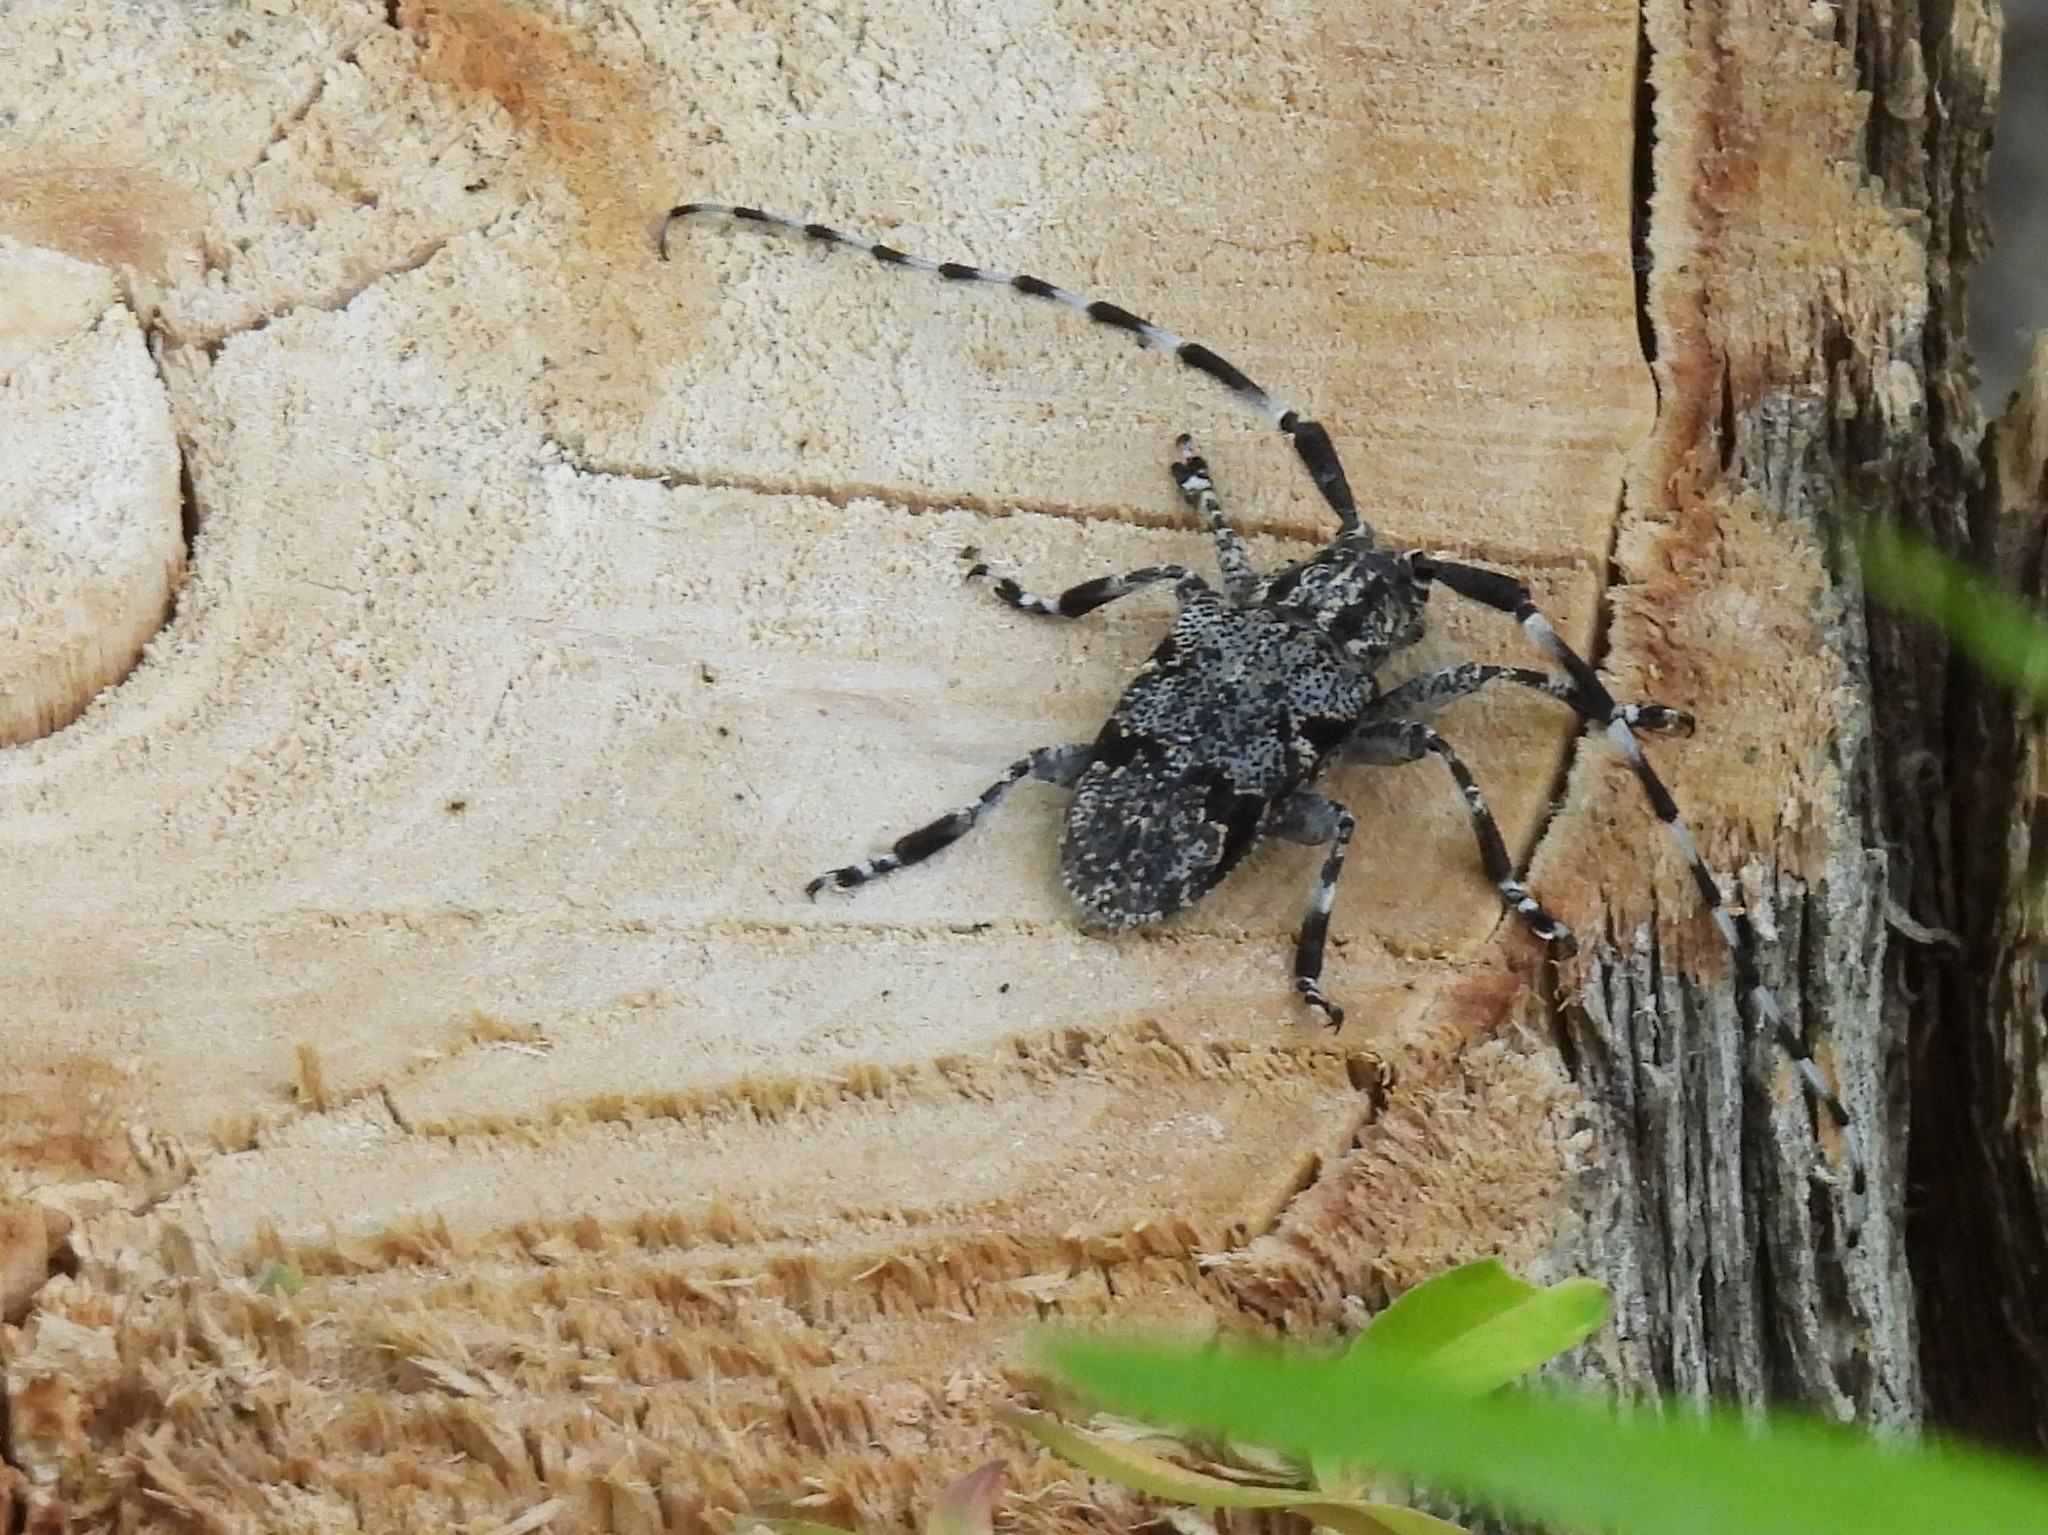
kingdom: Animalia
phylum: Arthropoda
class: Insecta
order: Coleoptera
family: Cerambycidae
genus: Synaphaeta
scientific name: Synaphaeta guexi
